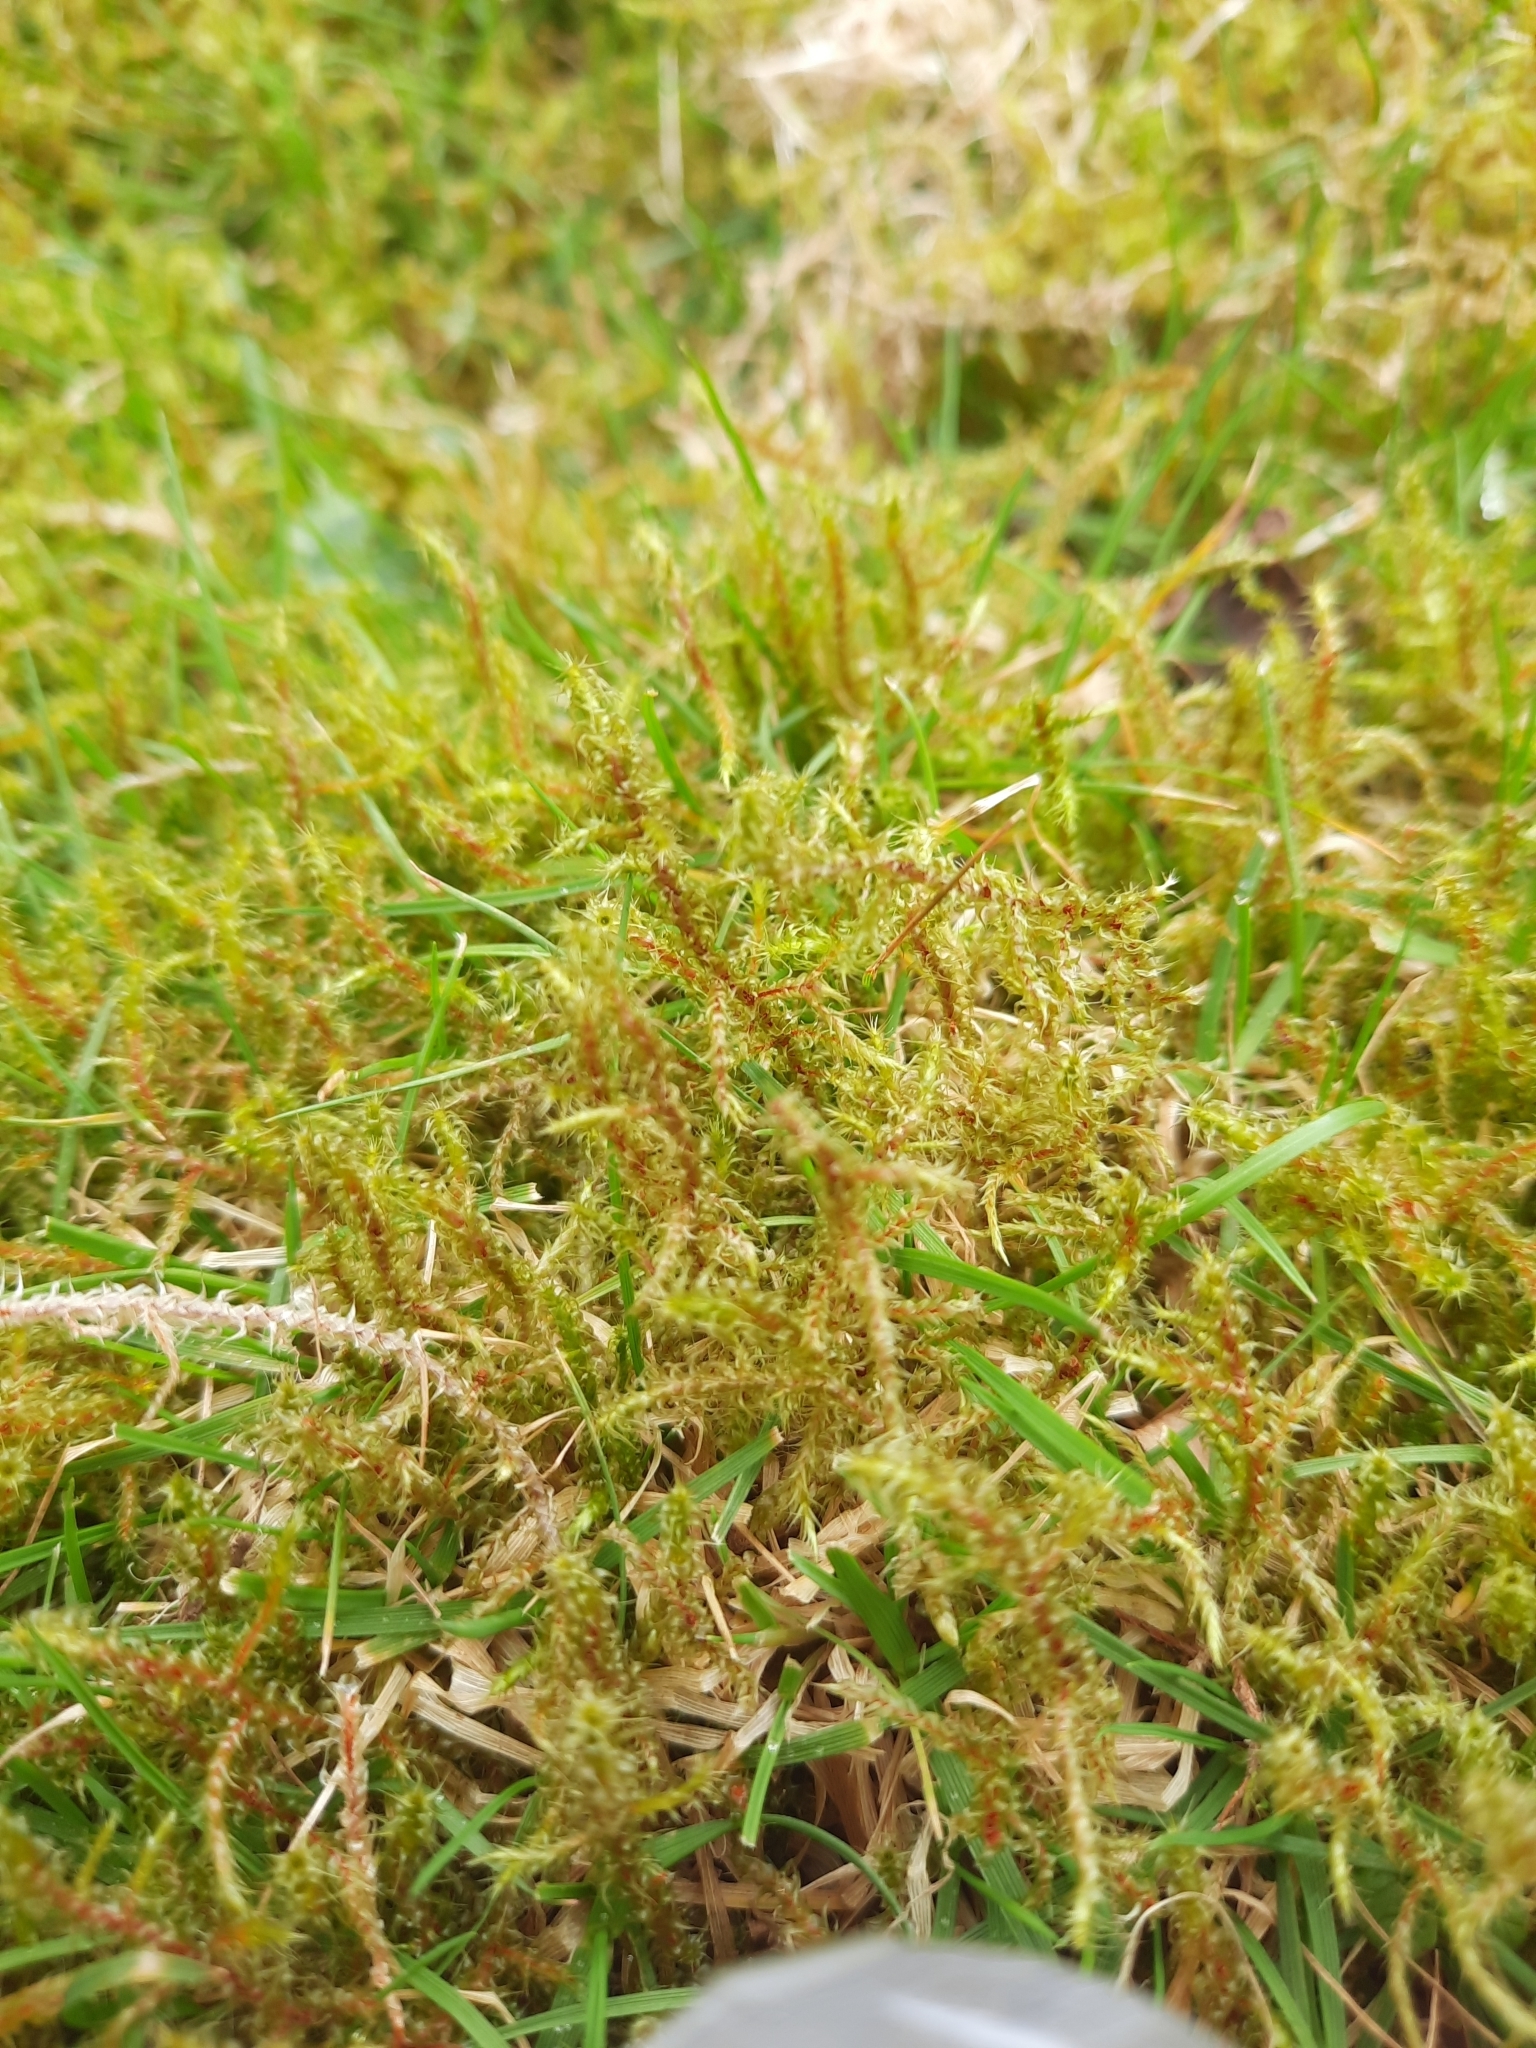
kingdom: Plantae
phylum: Bryophyta
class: Bryopsida
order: Hypnales
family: Hylocomiaceae
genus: Rhytidiadelphus
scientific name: Rhytidiadelphus squarrosus
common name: Springy turf-moss
